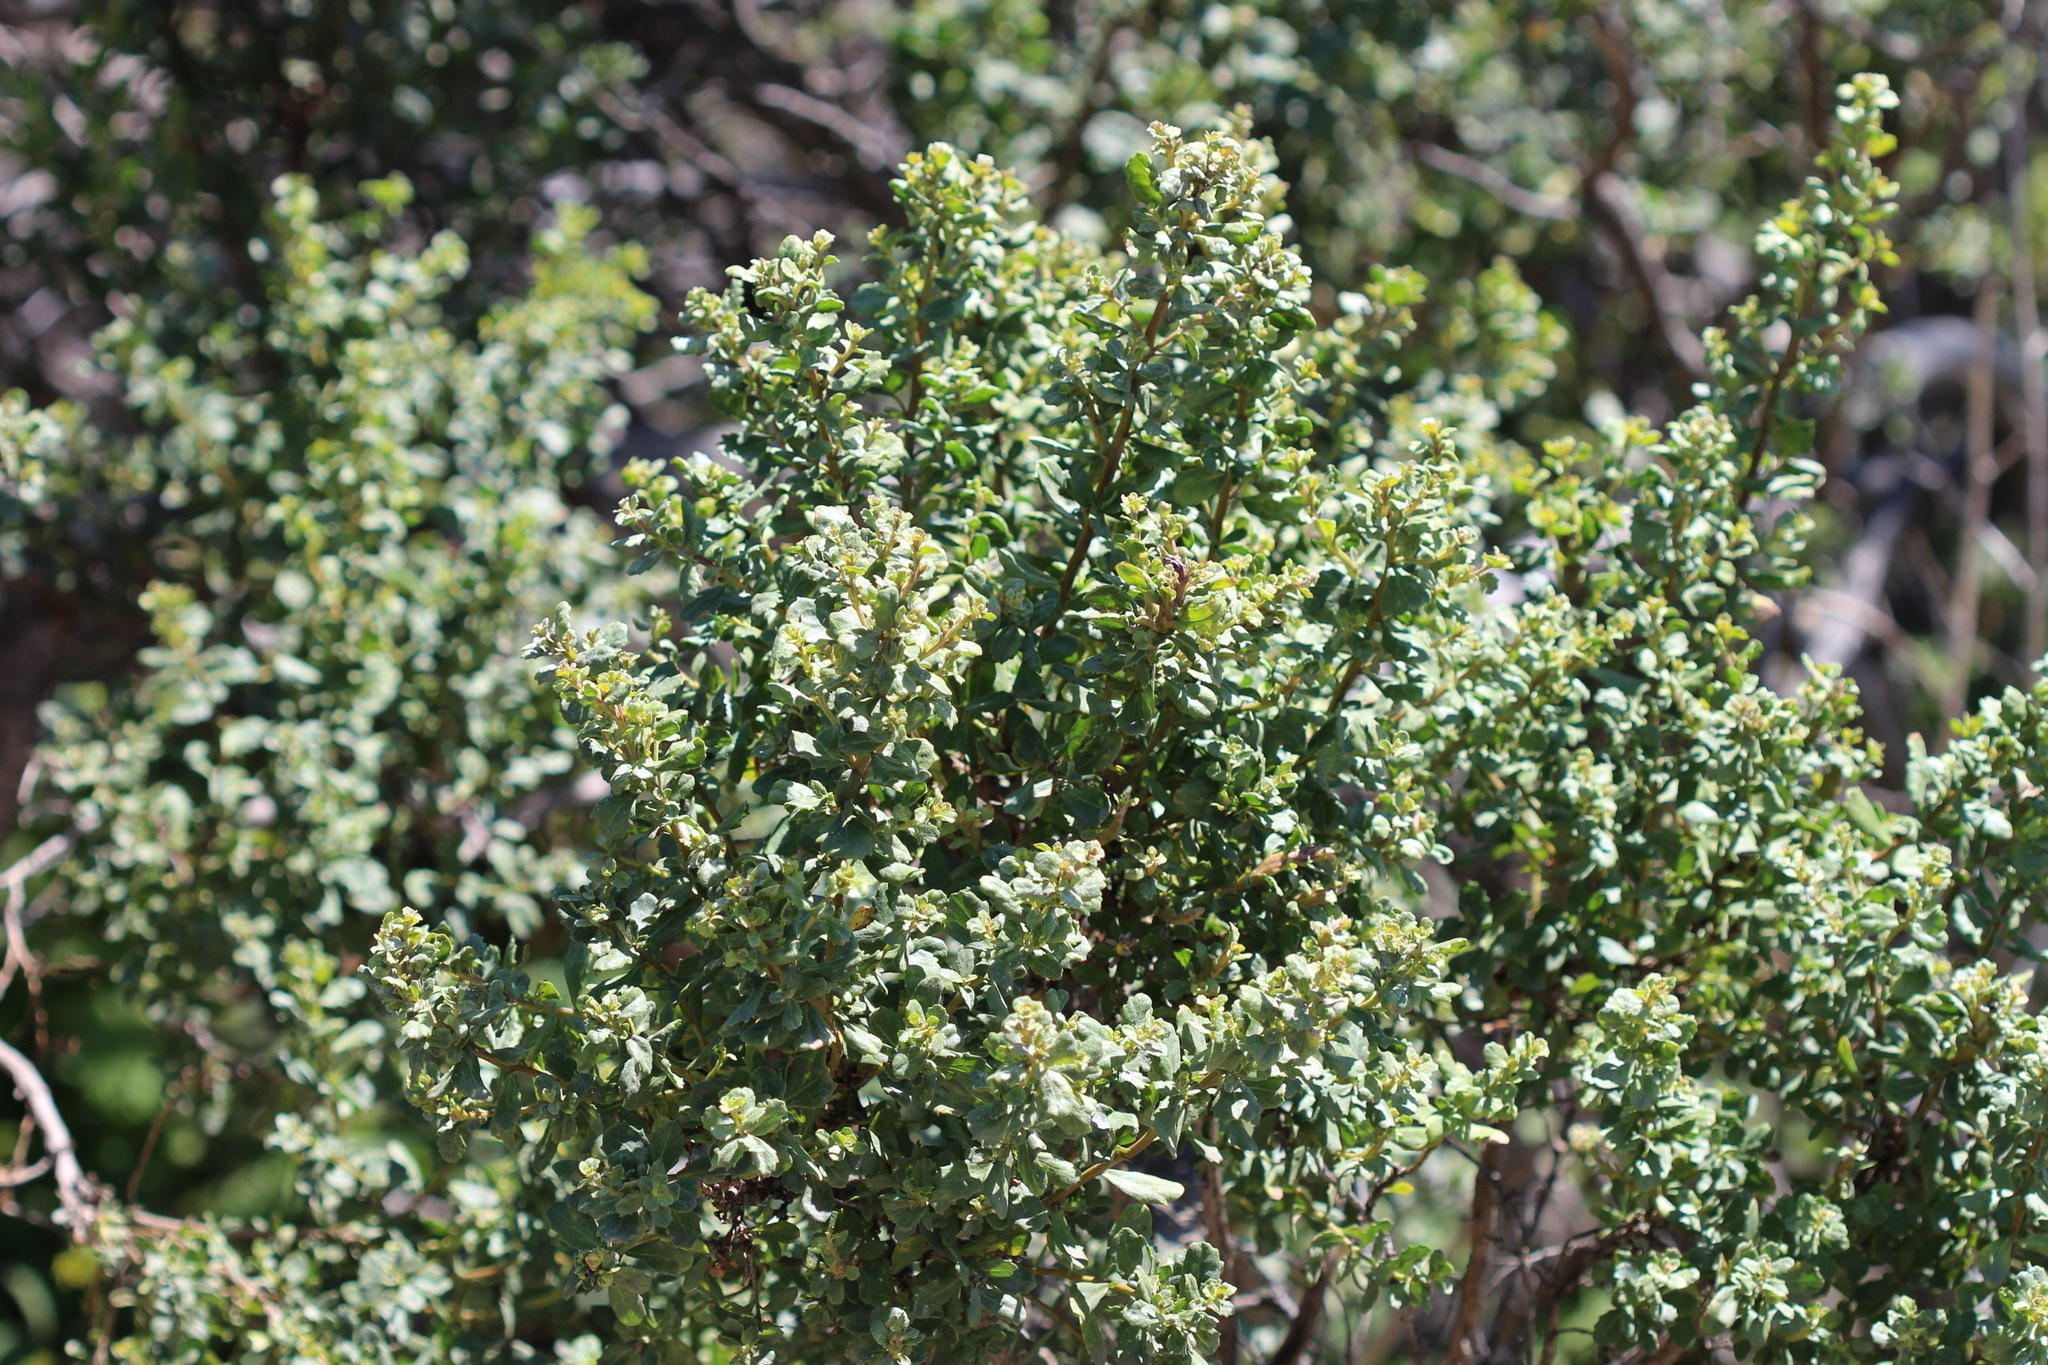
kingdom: Plantae
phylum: Tracheophyta
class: Magnoliopsida
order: Asterales
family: Asteraceae
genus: Baccharis
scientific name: Baccharis pilularis
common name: Coyotebrush
